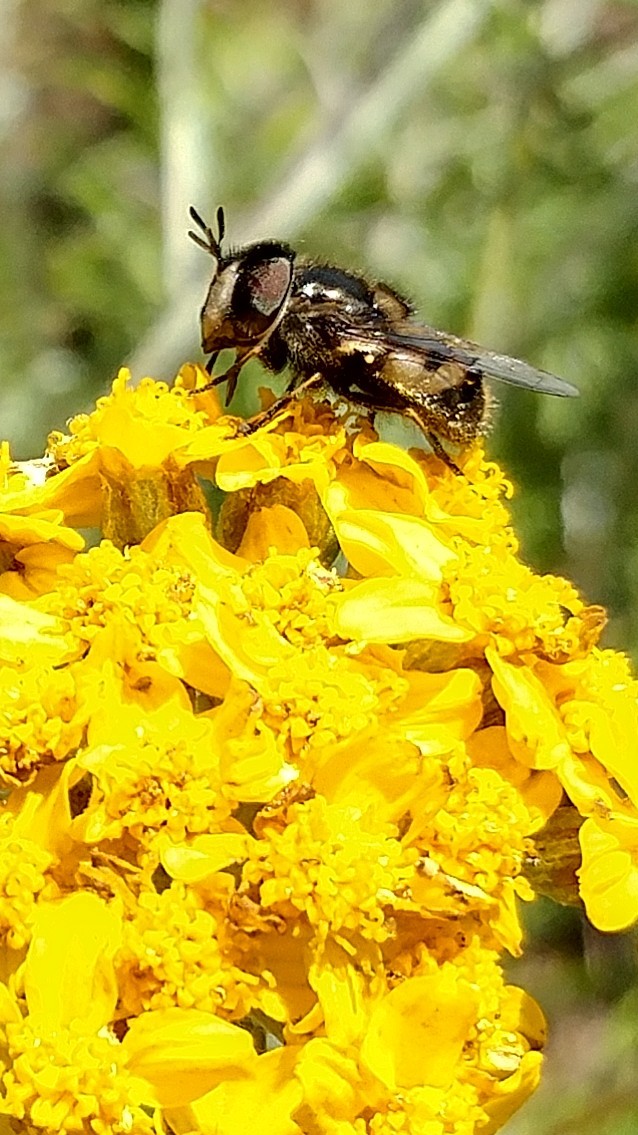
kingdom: Animalia
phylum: Arthropoda
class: Insecta
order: Diptera
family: Syrphidae
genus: Copestylum
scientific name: Copestylum lentum
